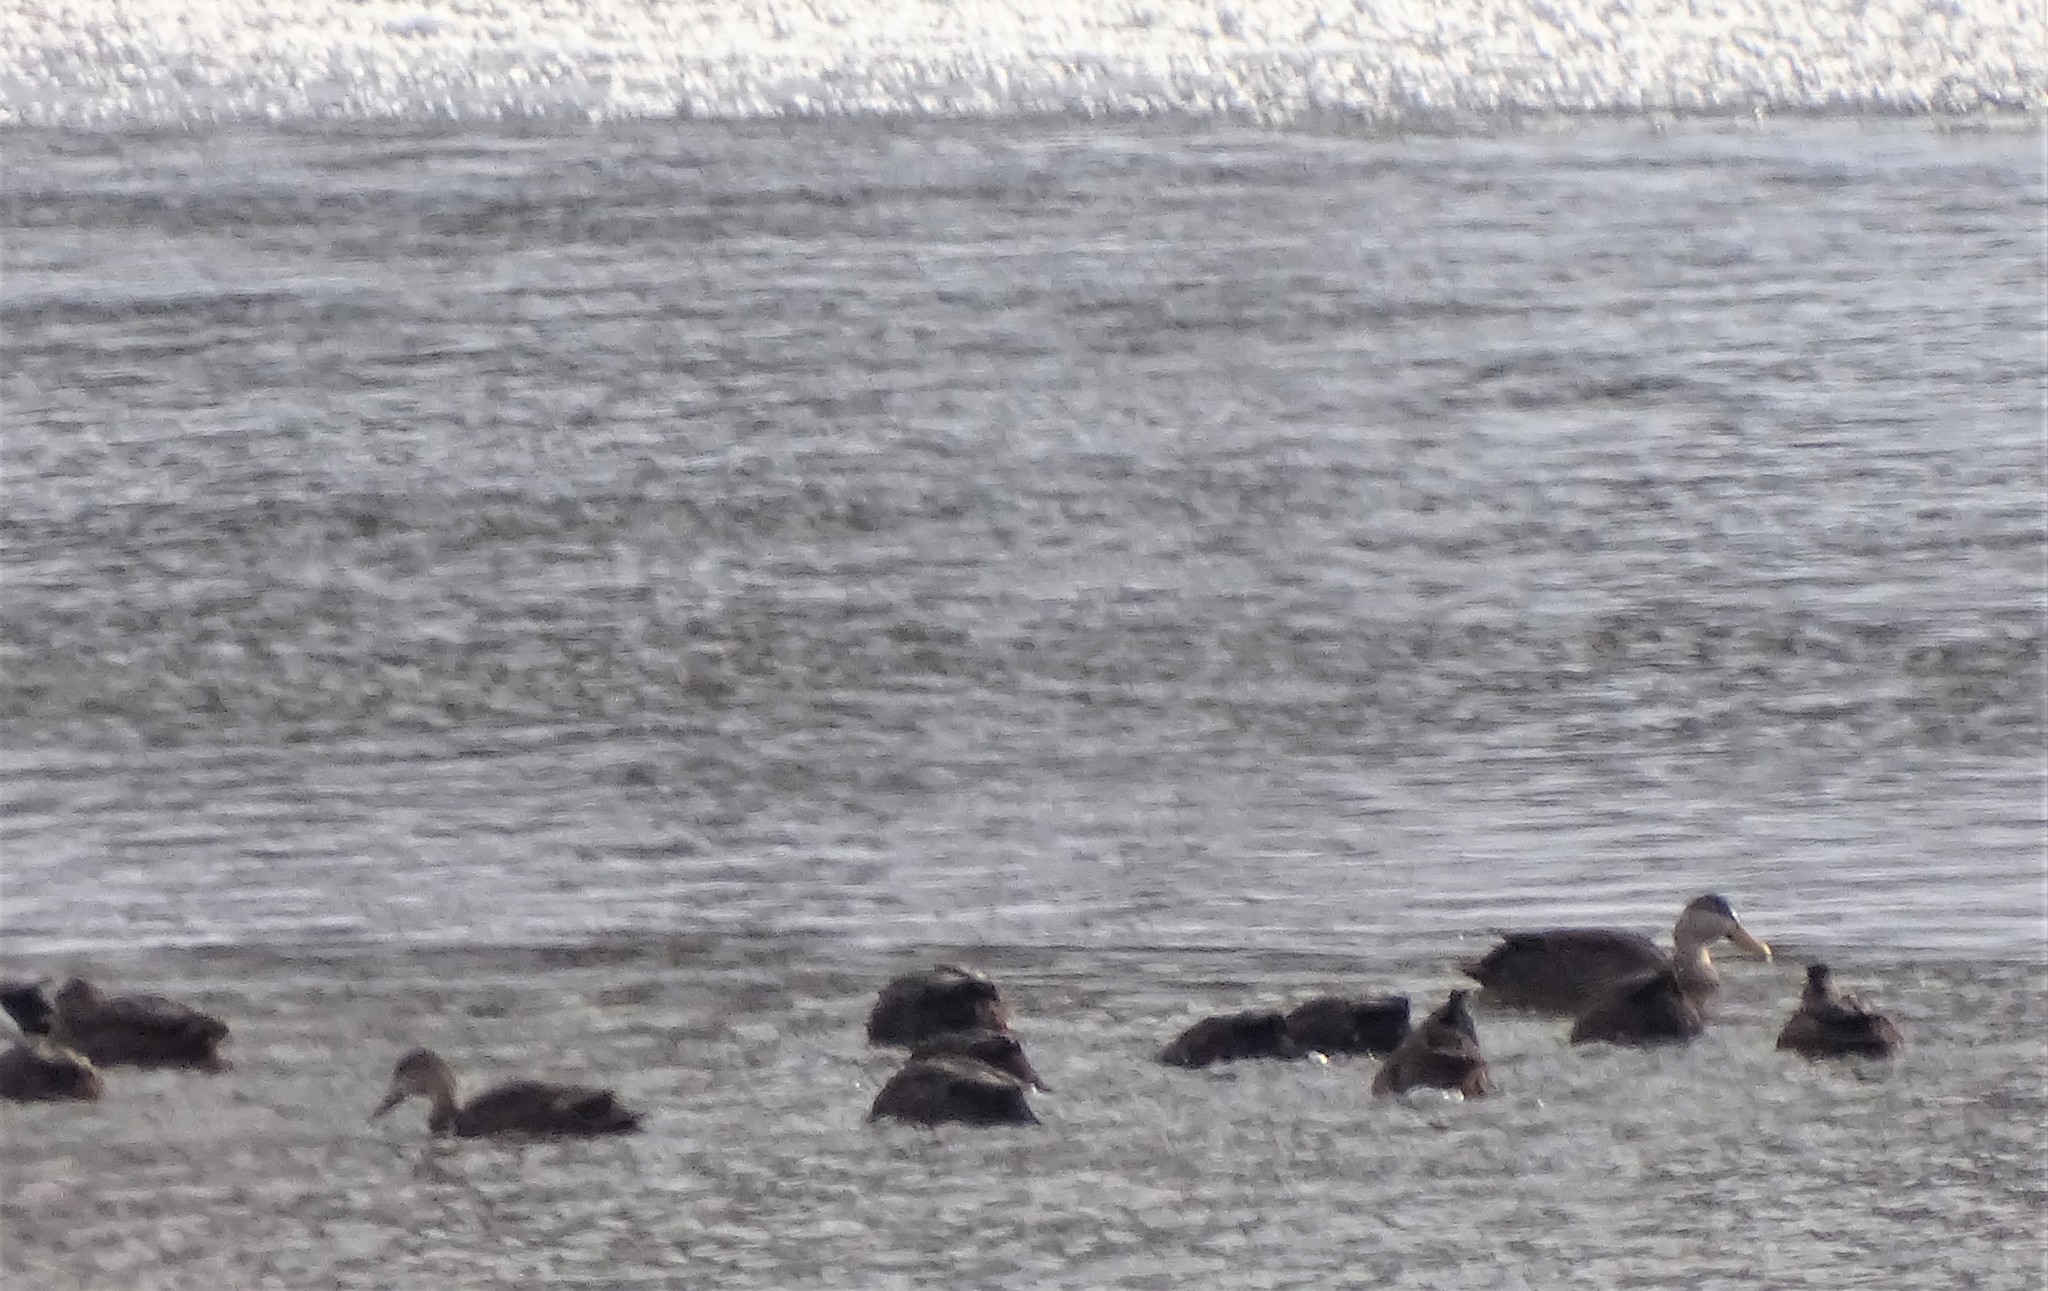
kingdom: Animalia
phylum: Chordata
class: Aves
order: Anseriformes
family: Anatidae
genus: Anas
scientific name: Anas rubripes
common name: American black duck
